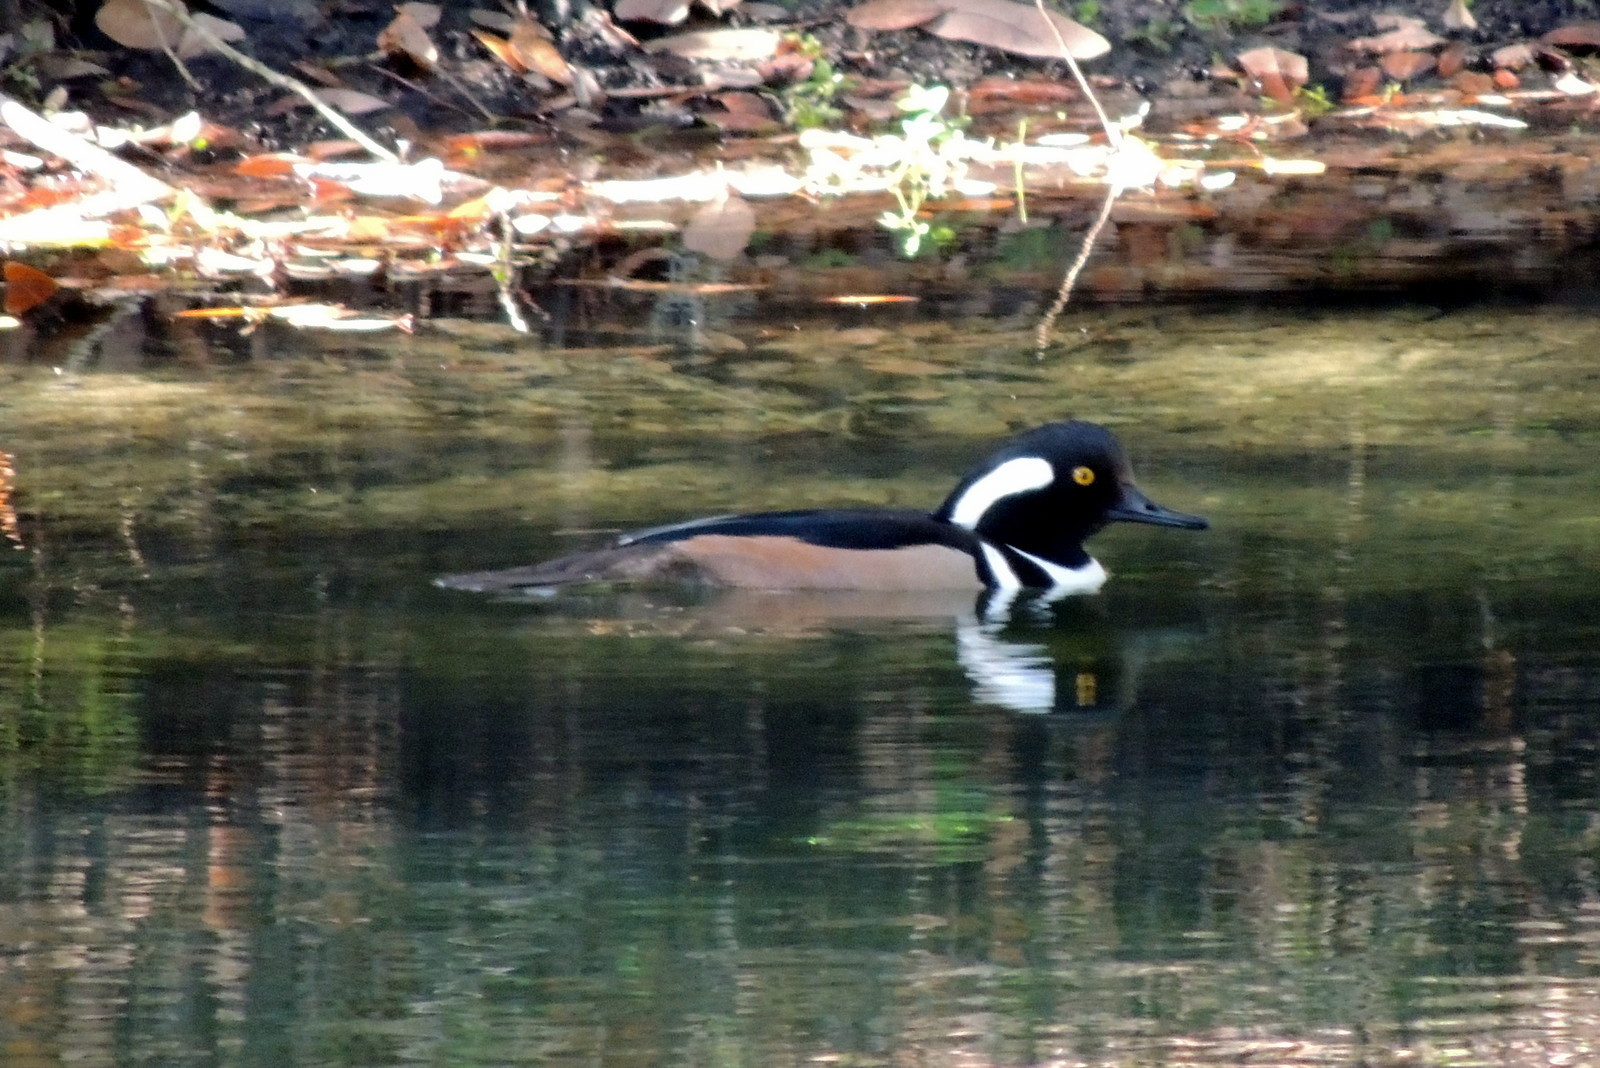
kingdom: Animalia
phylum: Chordata
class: Aves
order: Anseriformes
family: Anatidae
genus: Lophodytes
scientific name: Lophodytes cucullatus
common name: Hooded merganser
